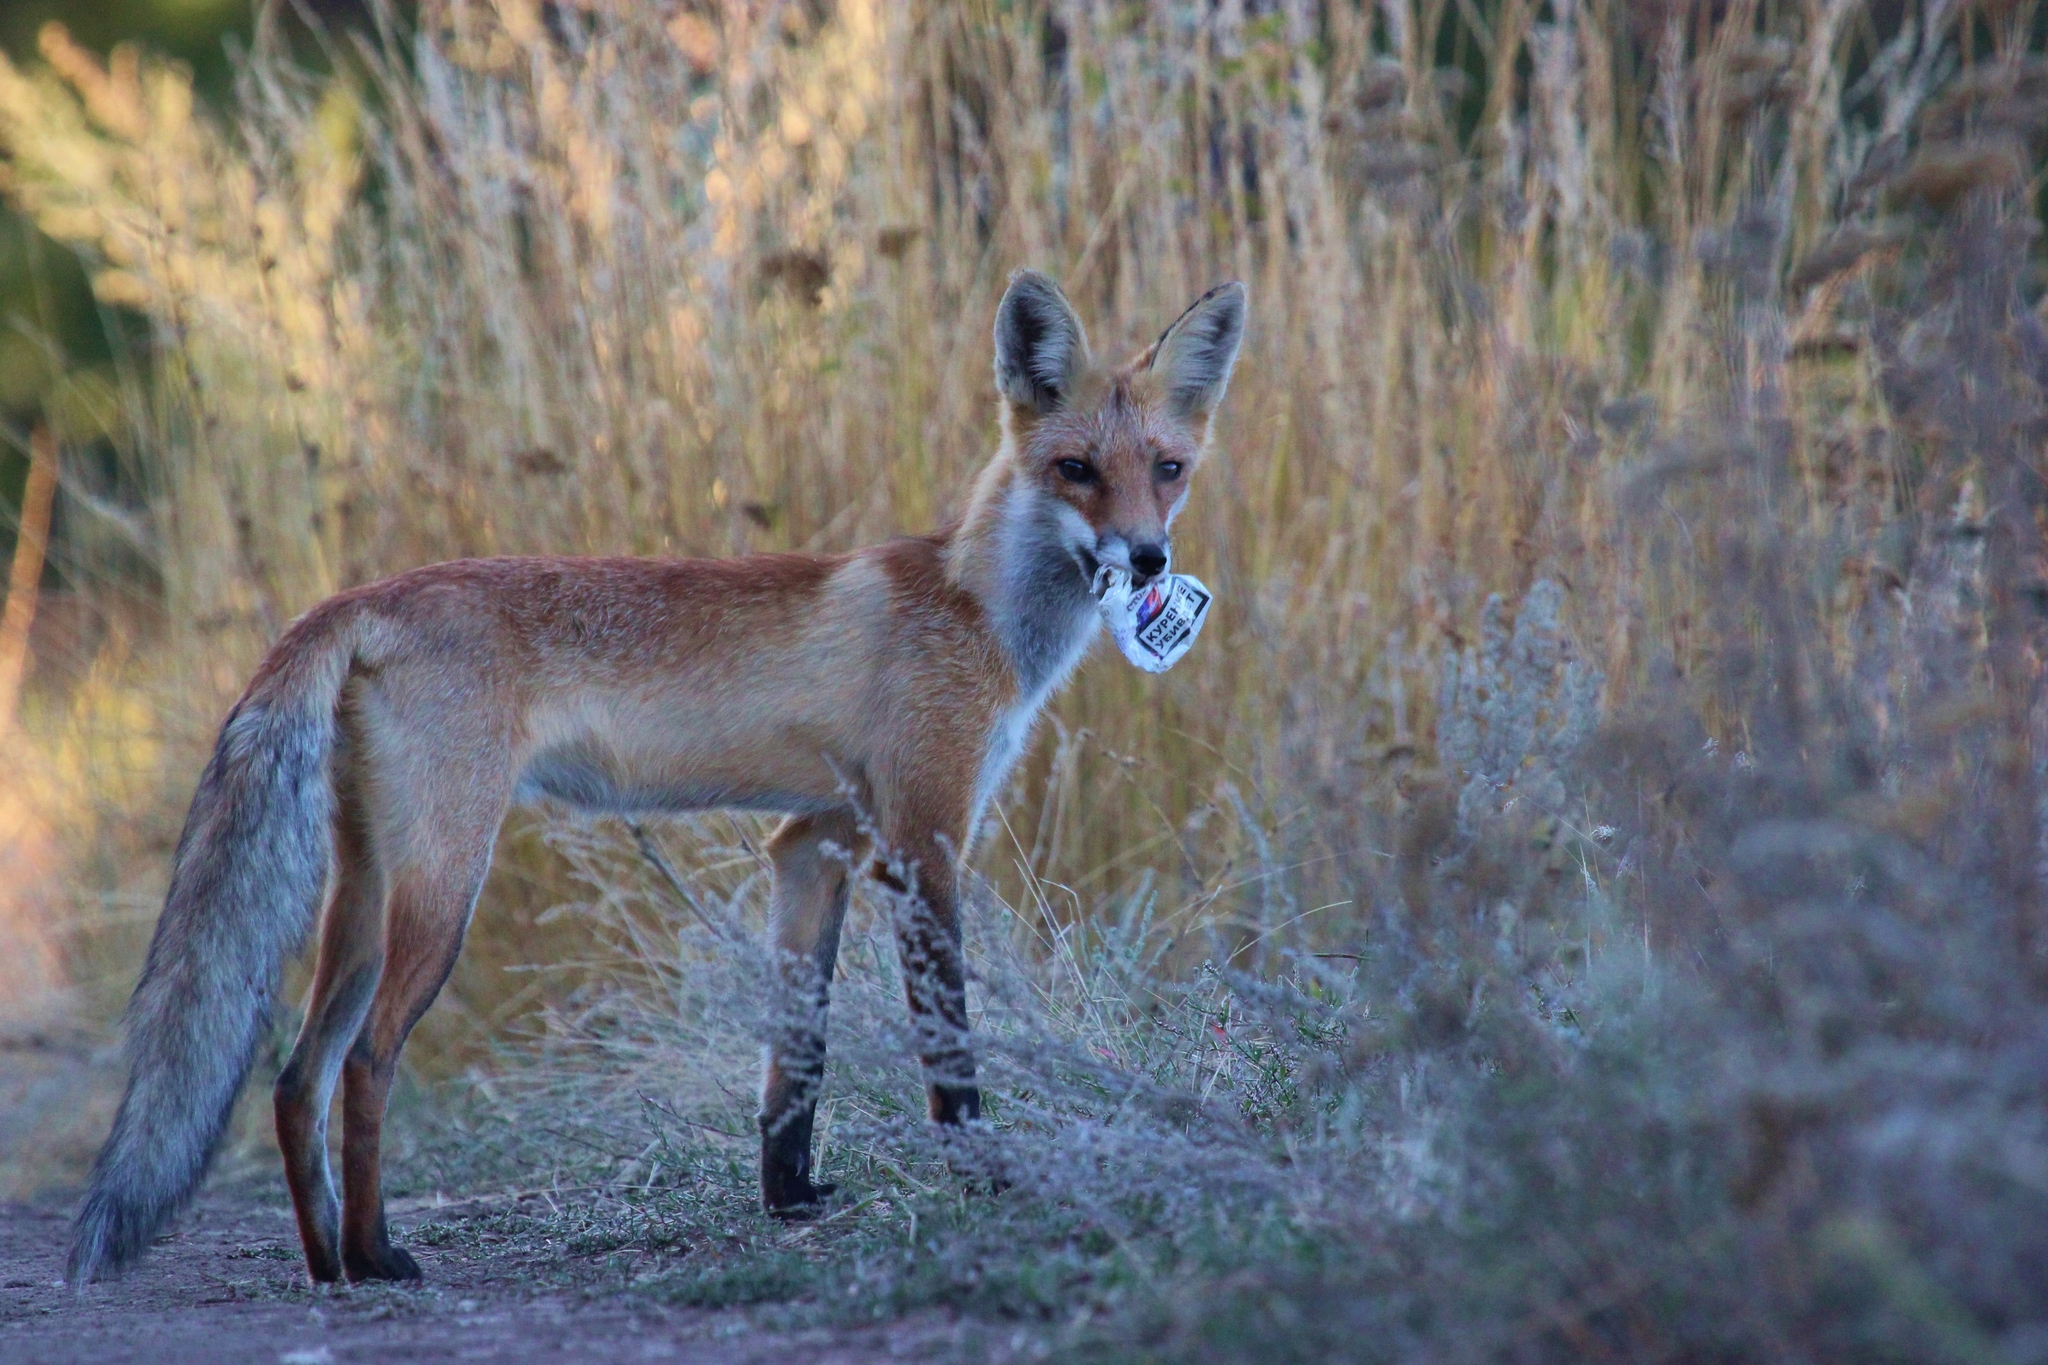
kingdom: Animalia
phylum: Chordata
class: Mammalia
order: Carnivora
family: Canidae
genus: Vulpes
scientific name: Vulpes vulpes
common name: Red fox
